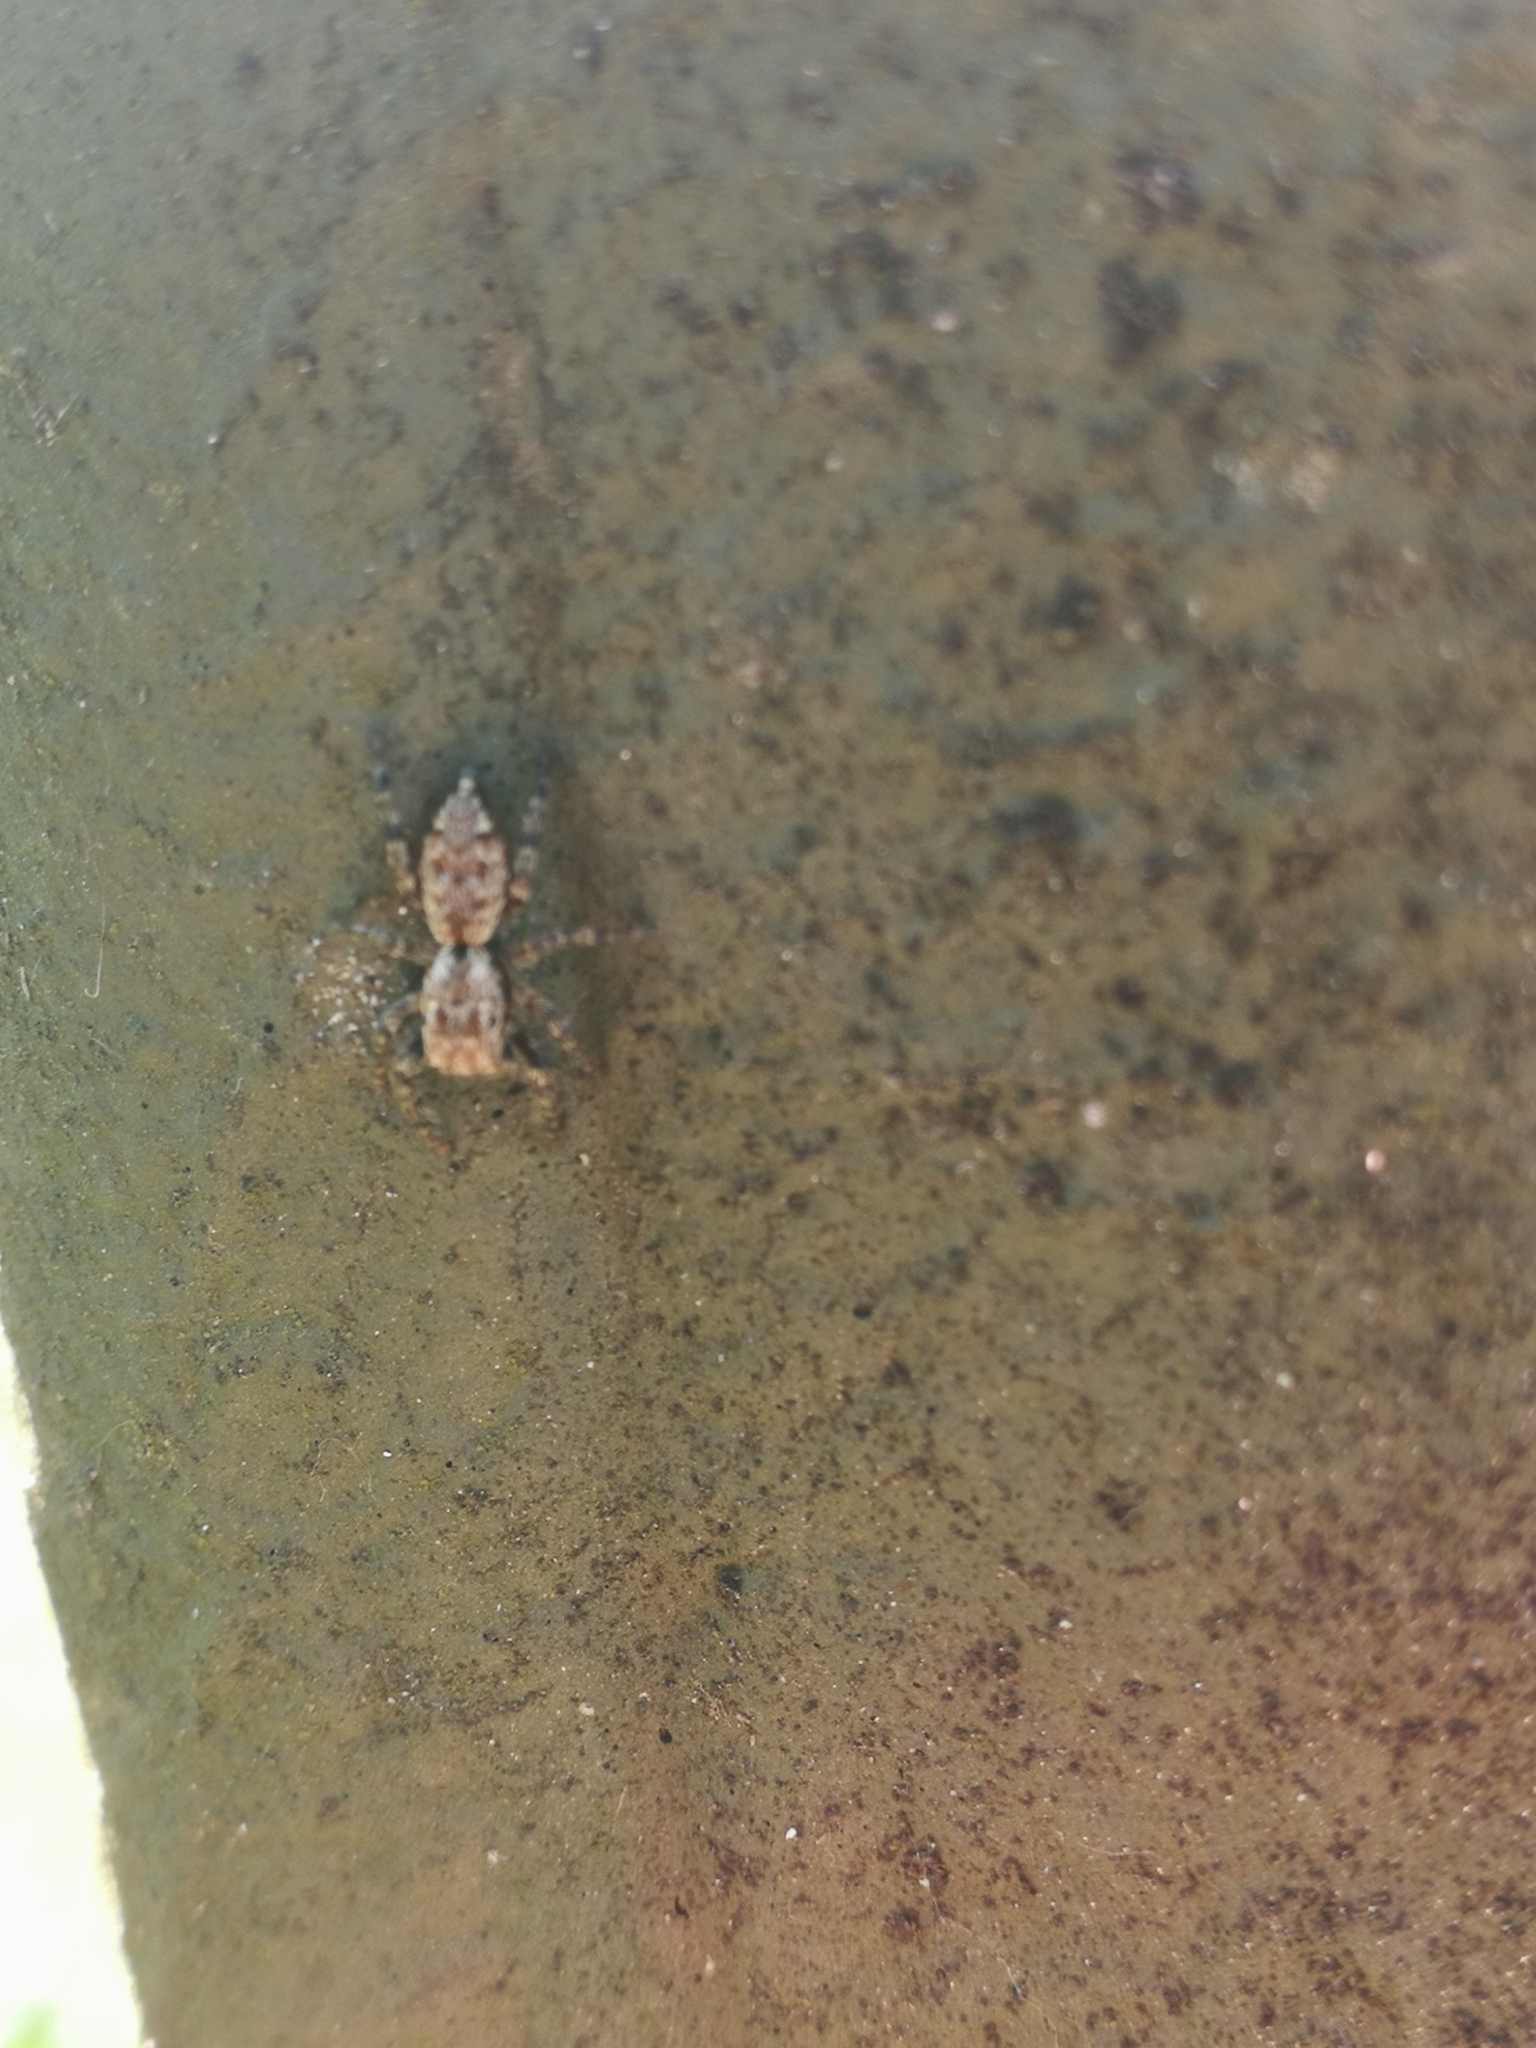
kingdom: Animalia
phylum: Arthropoda
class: Arachnida
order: Araneae
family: Salticidae
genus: Marpissa
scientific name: Marpissa muscosa
